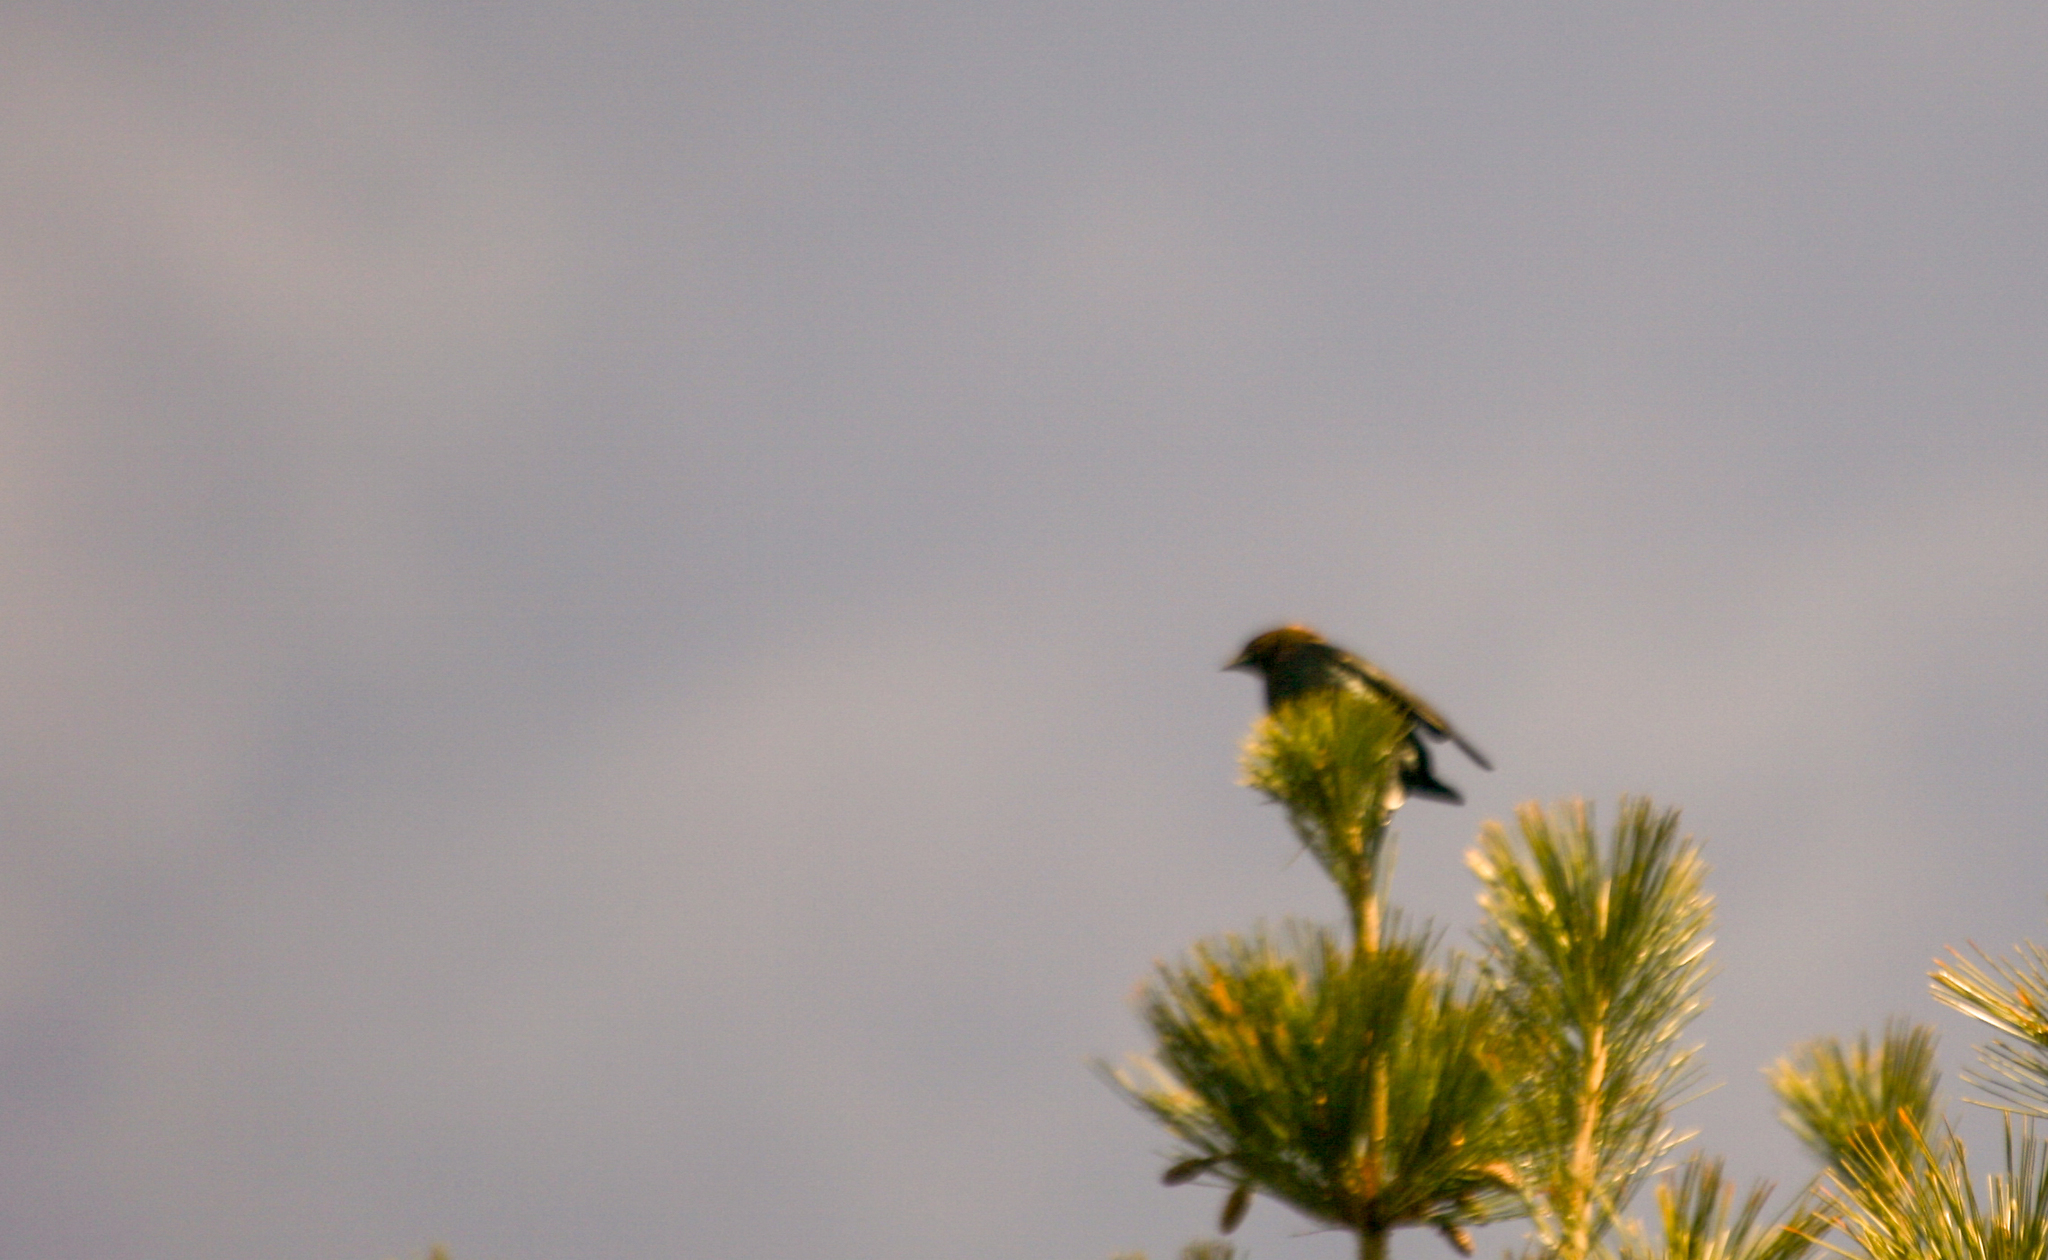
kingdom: Animalia
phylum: Chordata
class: Aves
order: Passeriformes
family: Icteridae
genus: Molothrus
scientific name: Molothrus ater
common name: Brown-headed cowbird
